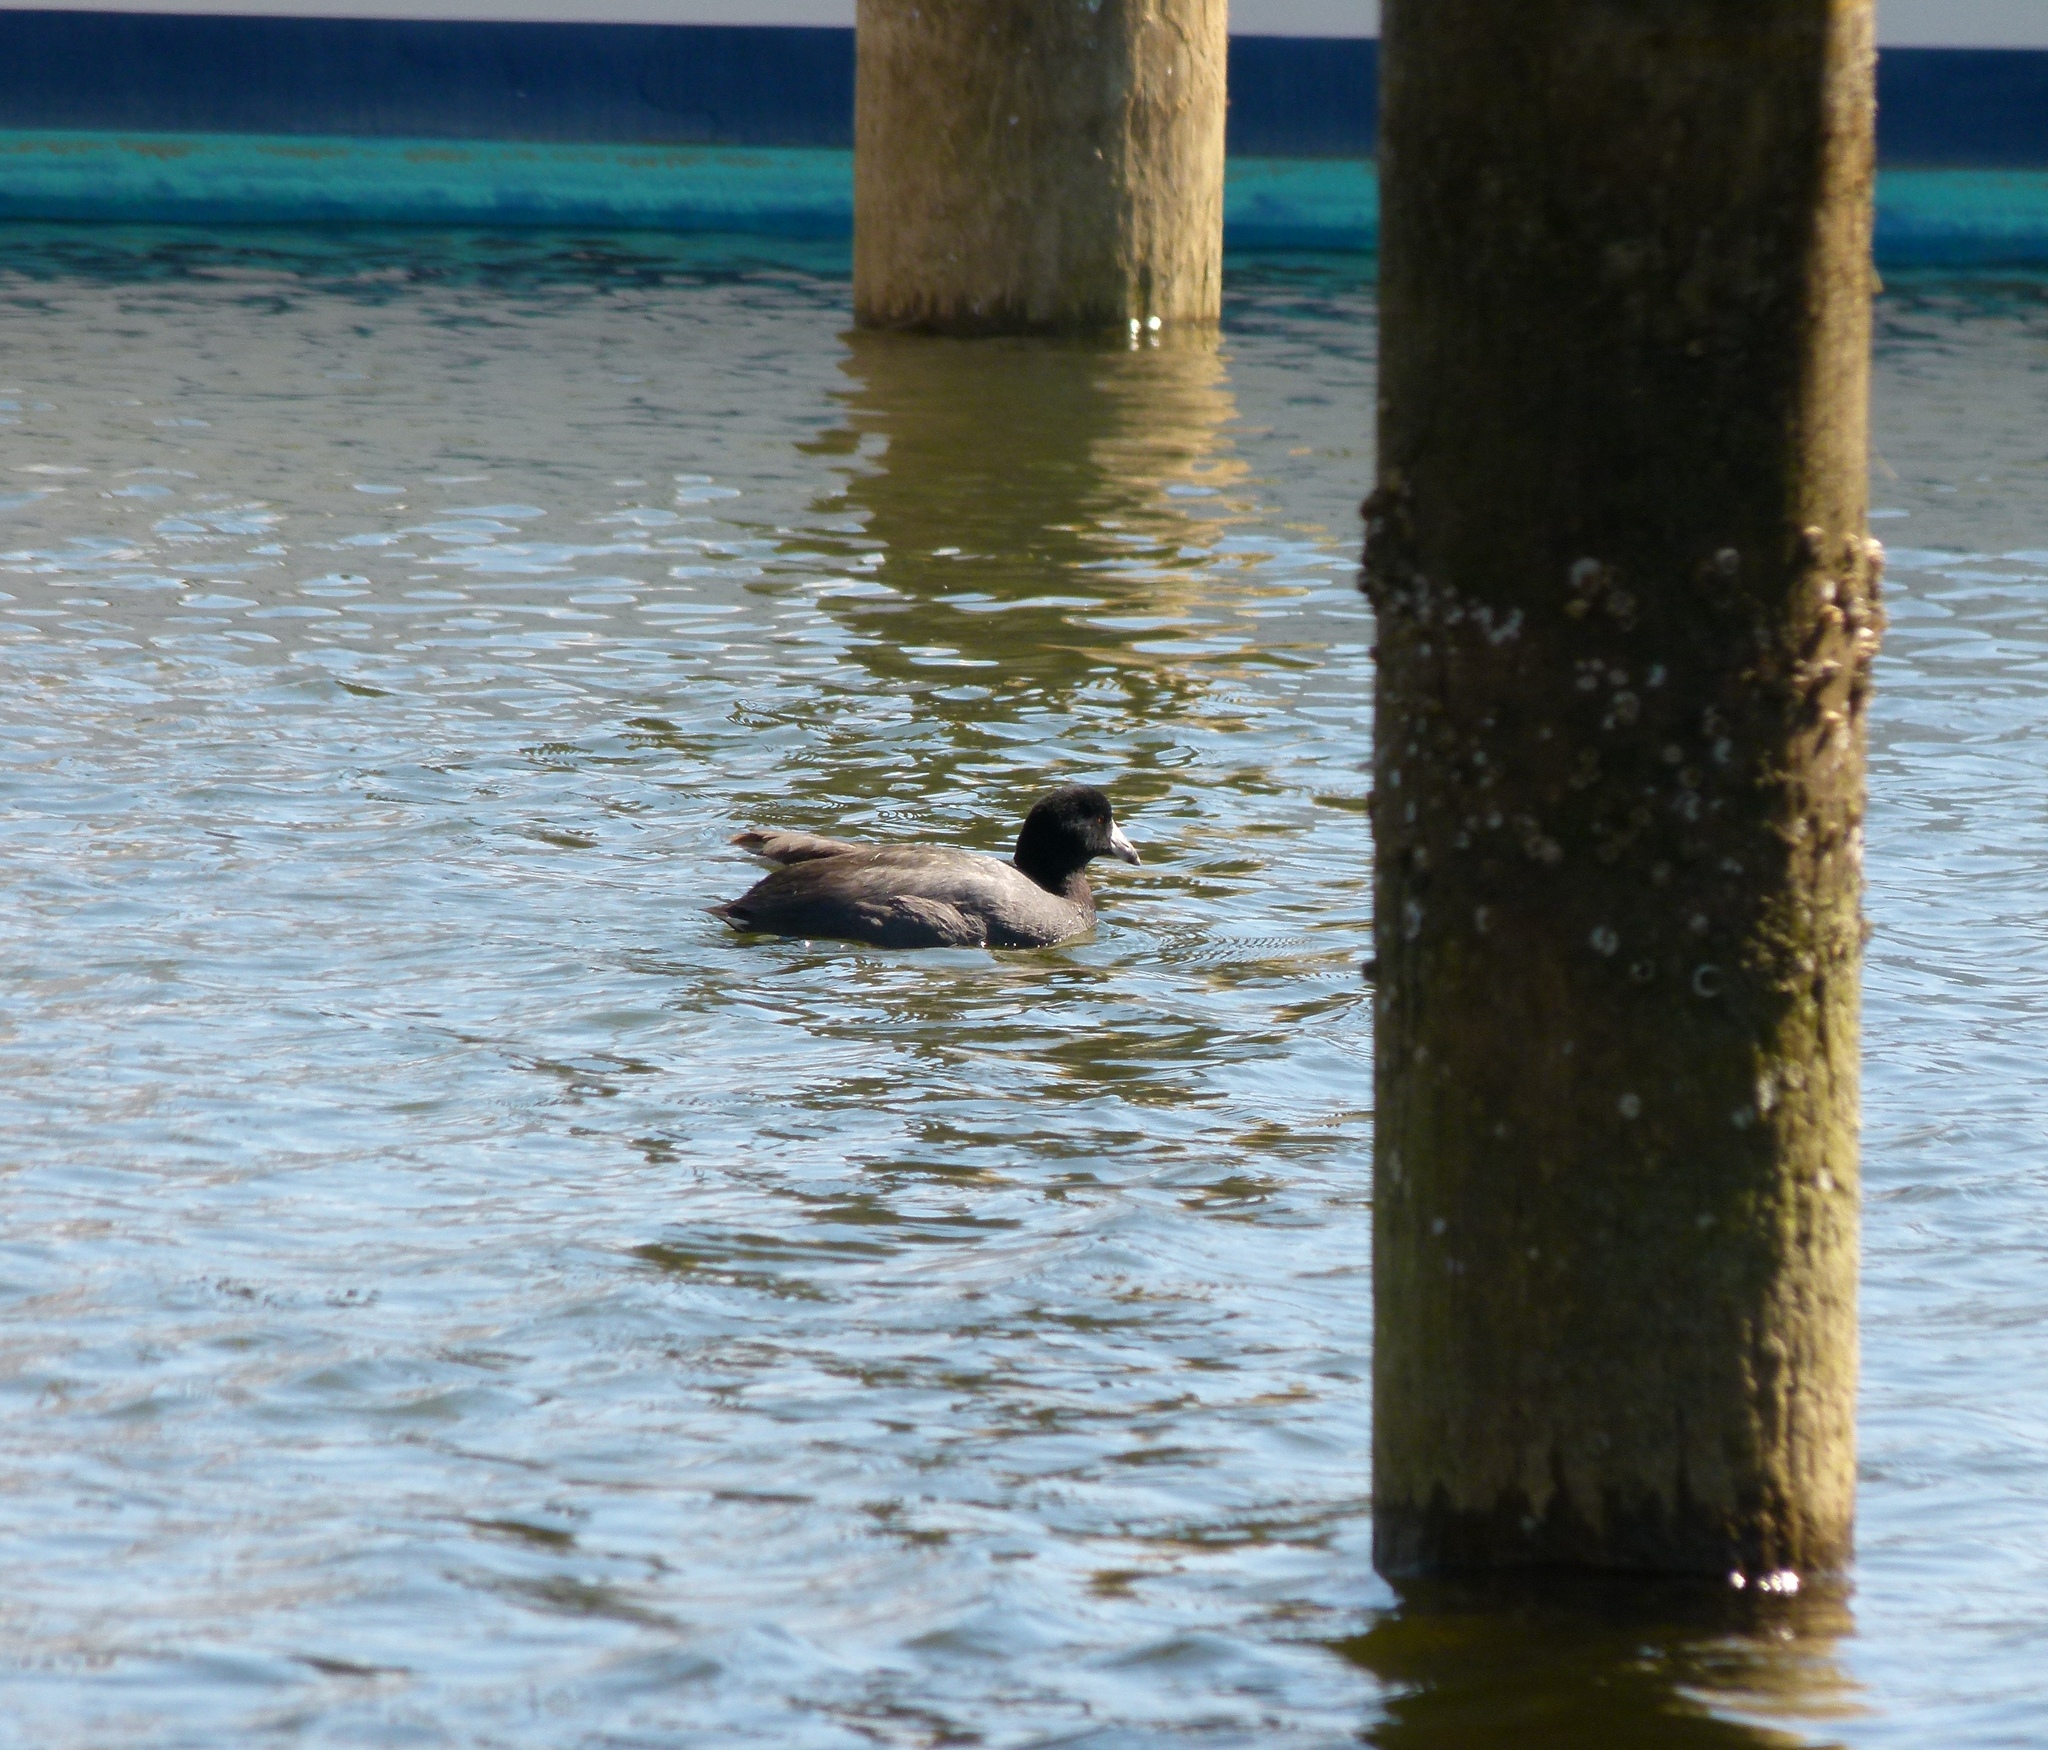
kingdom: Animalia
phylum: Chordata
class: Aves
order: Gruiformes
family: Rallidae
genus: Fulica
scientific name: Fulica americana
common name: American coot
